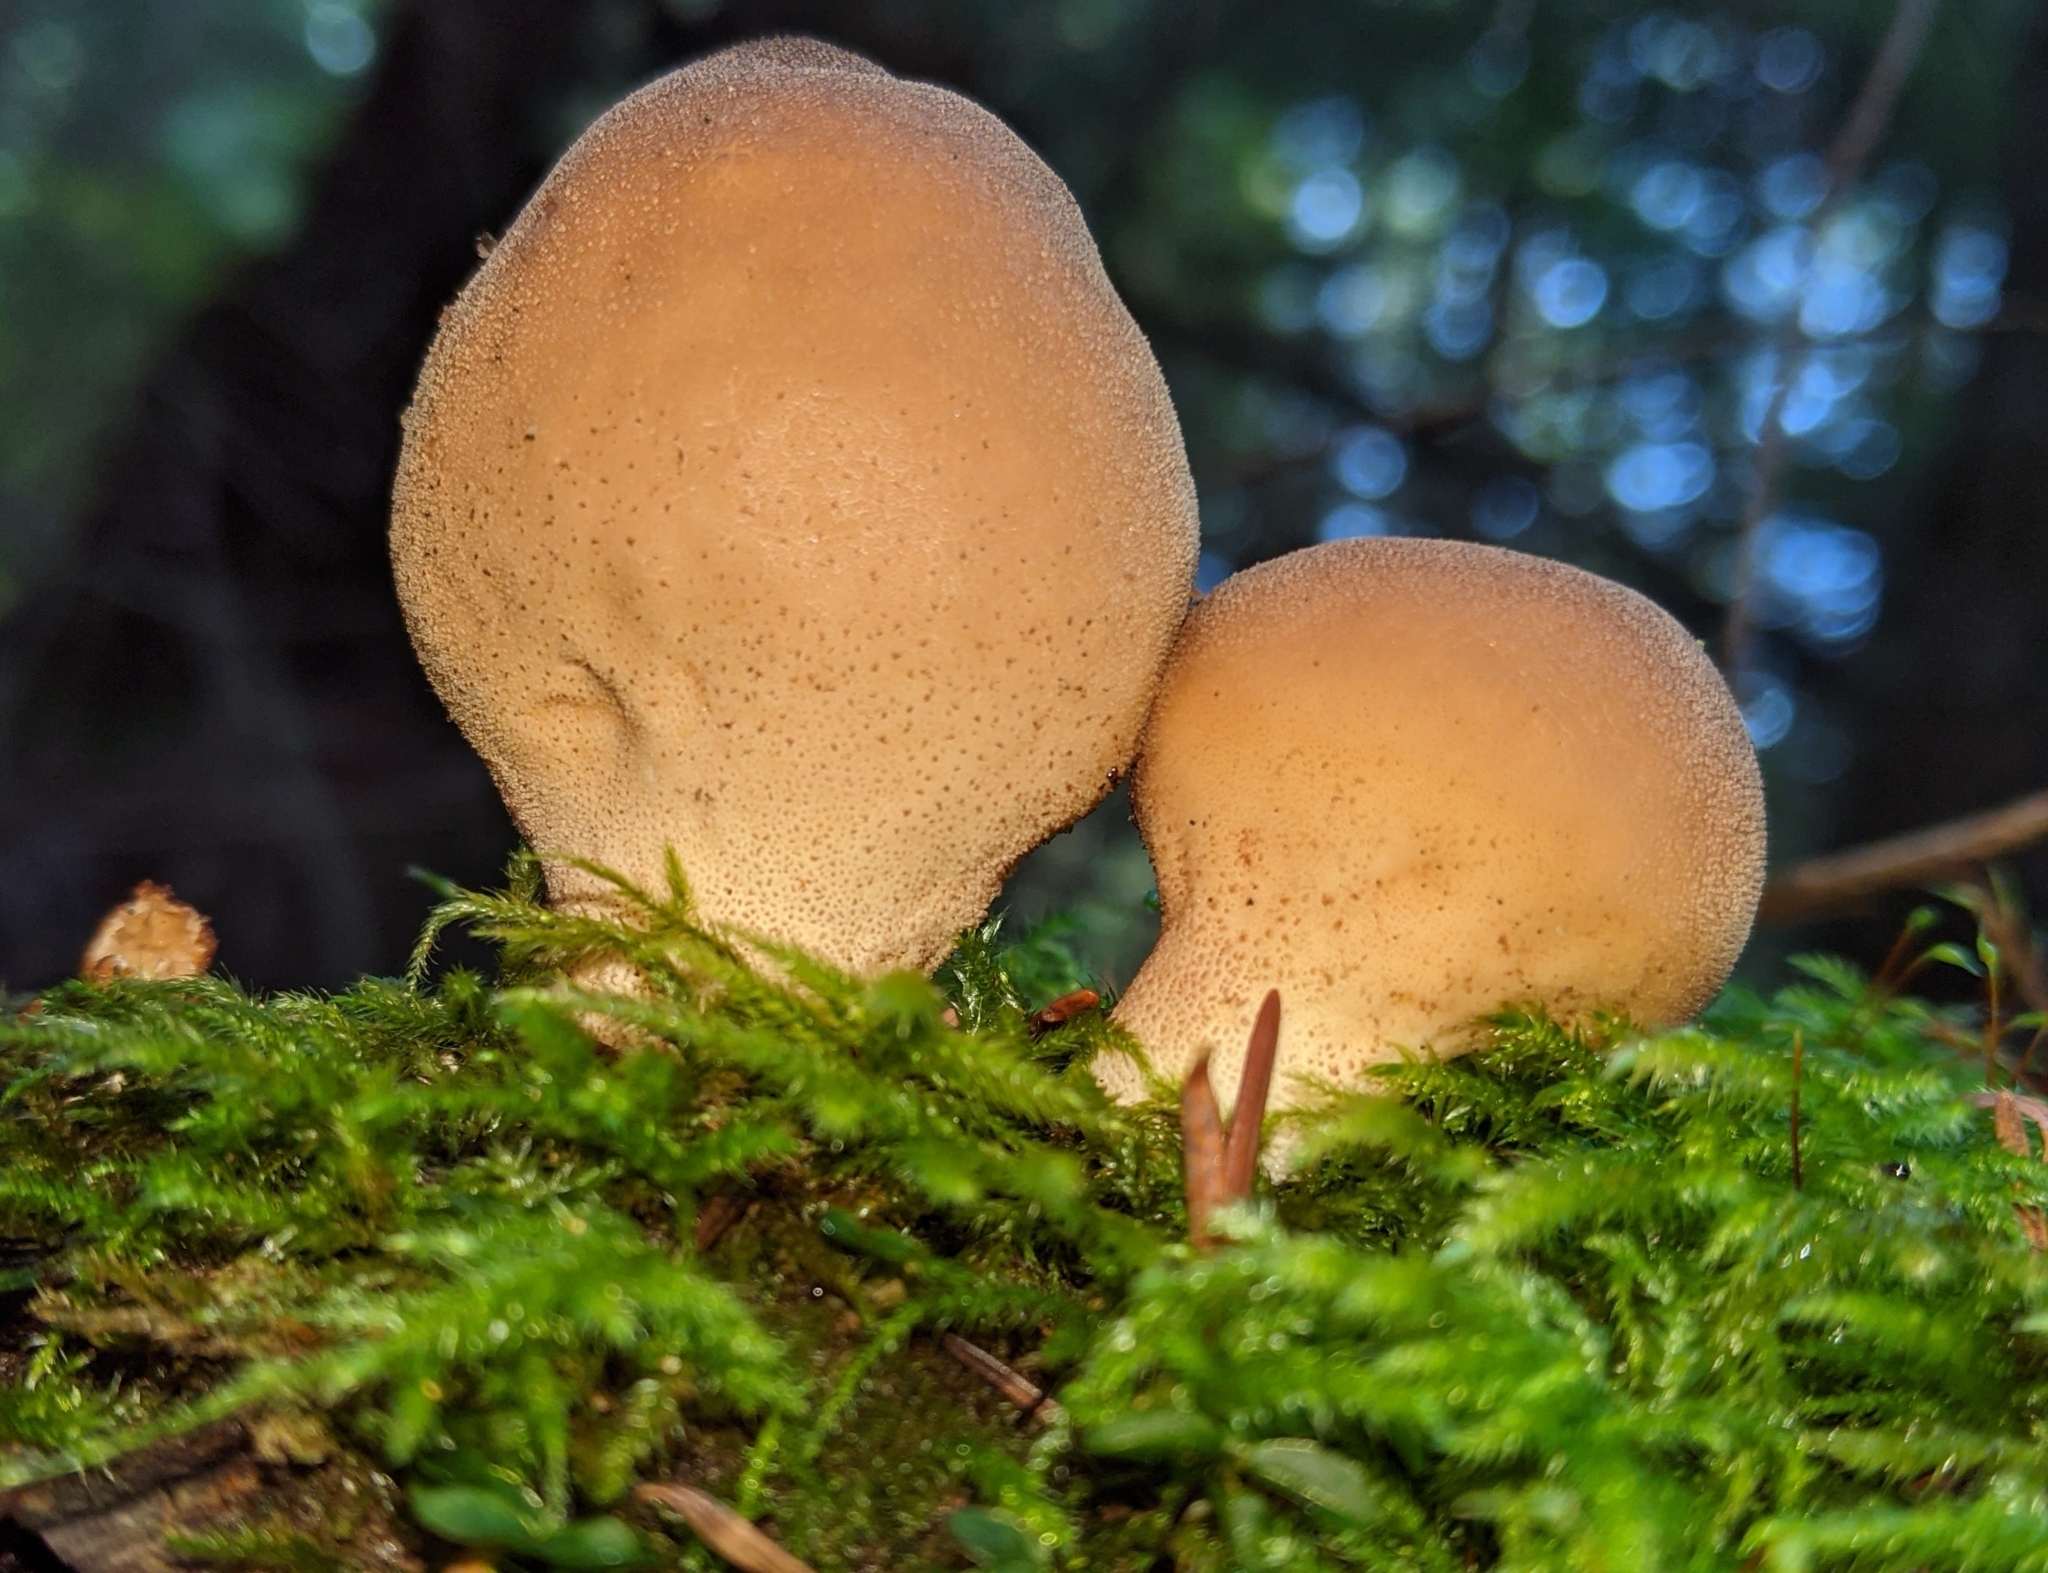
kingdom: Fungi
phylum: Basidiomycota
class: Agaricomycetes
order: Agaricales
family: Lycoperdaceae
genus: Apioperdon
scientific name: Apioperdon pyriforme
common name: Pear-shaped puffball
